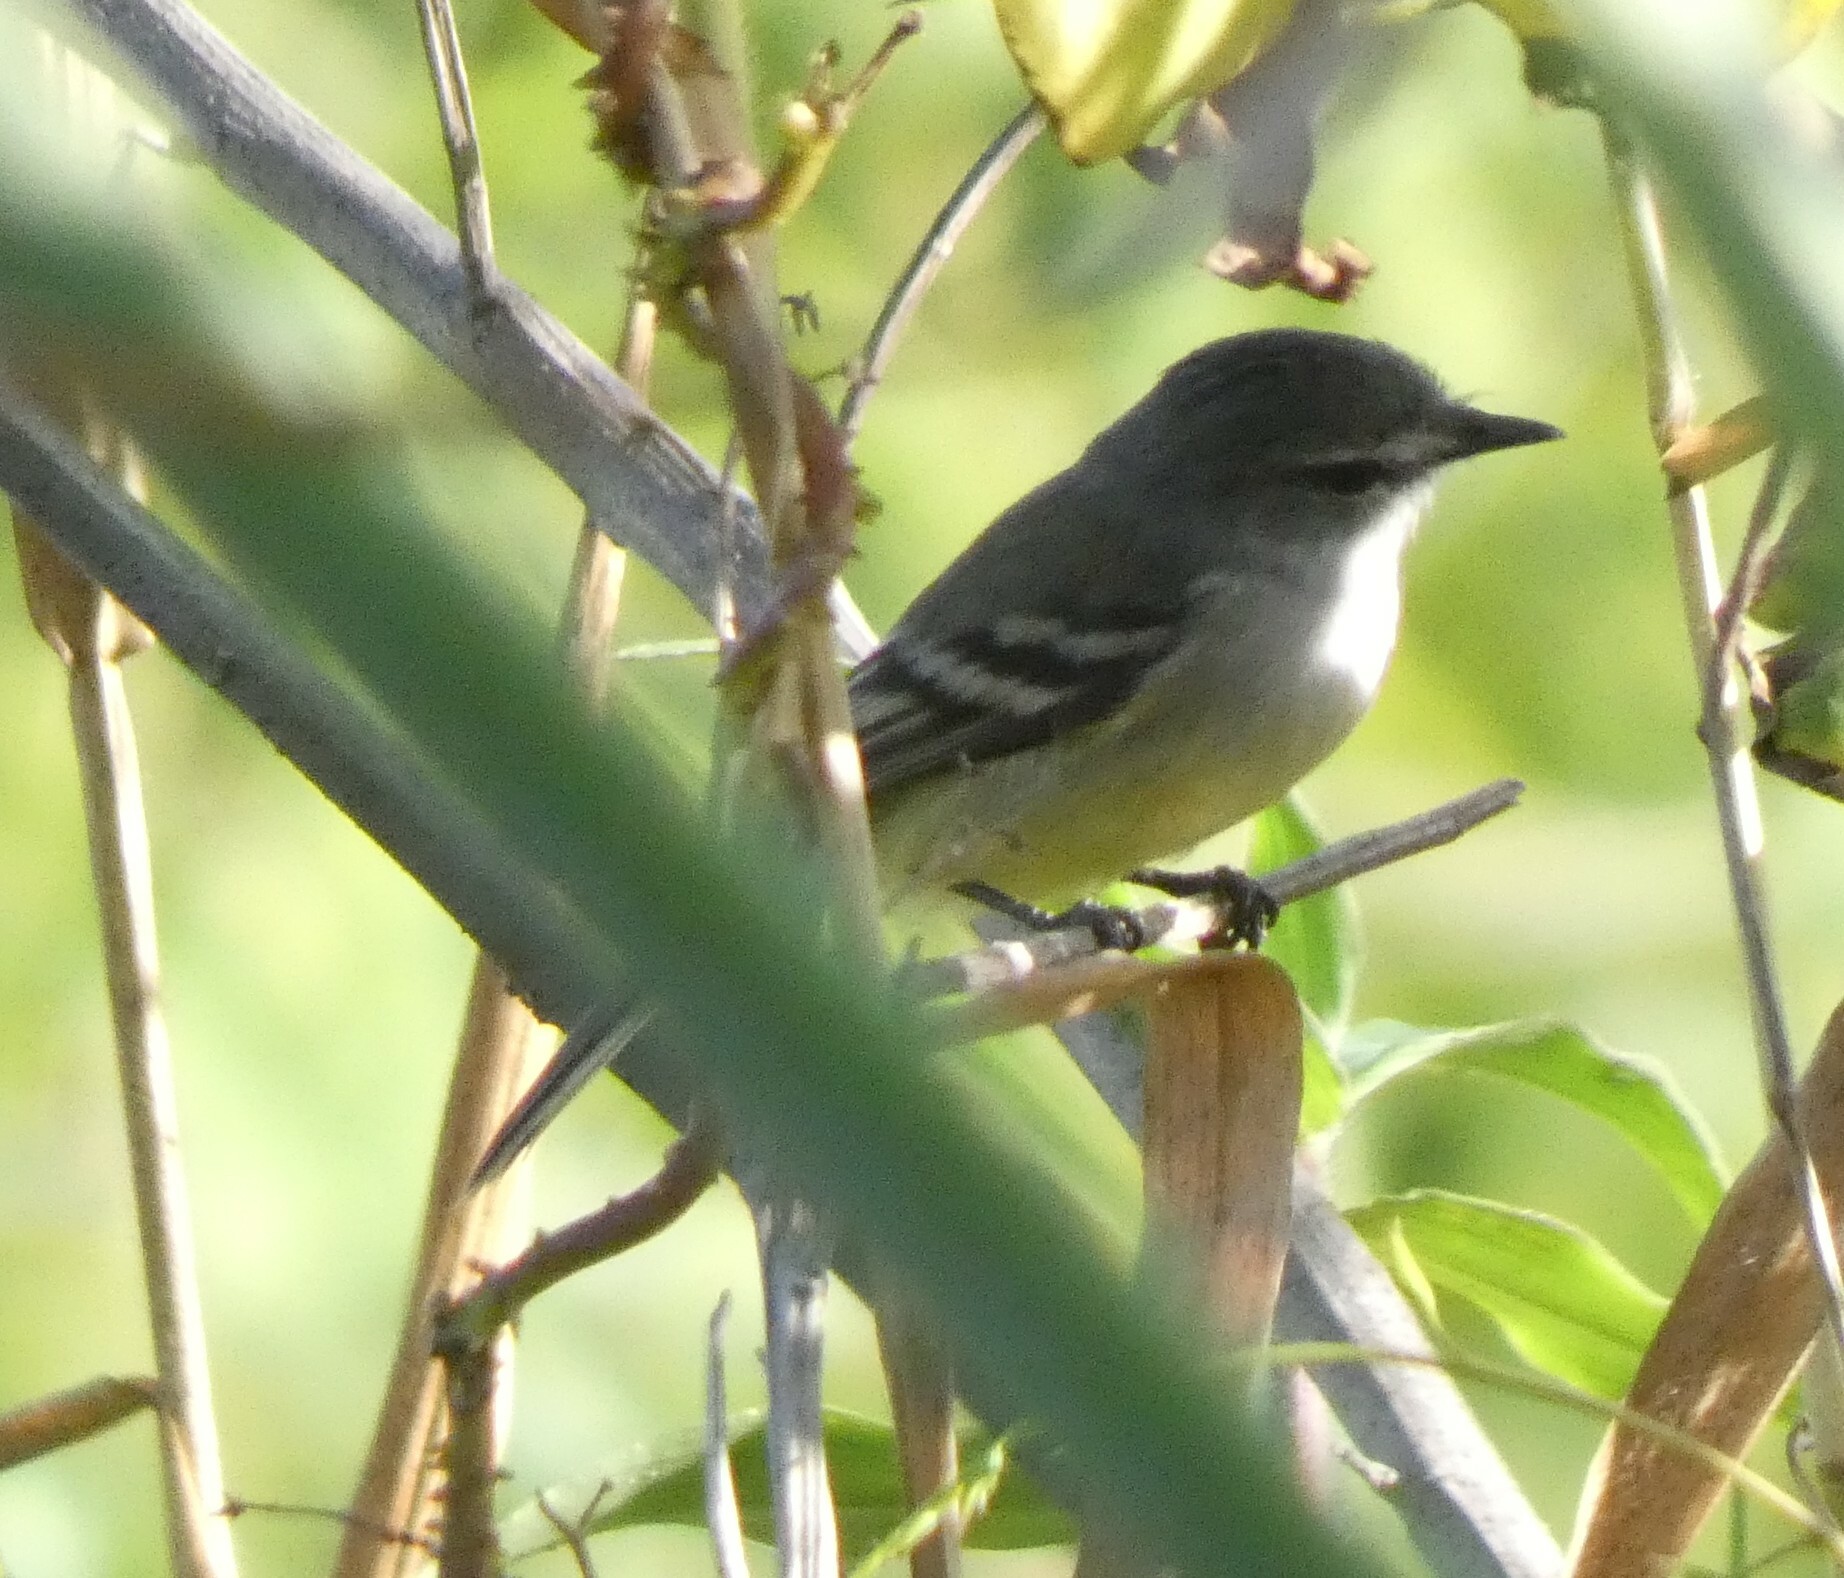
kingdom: Animalia
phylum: Chordata
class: Aves
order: Passeriformes
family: Tyrannidae
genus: Serpophaga
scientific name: Serpophaga subcristata
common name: White-crested tyrannulet
